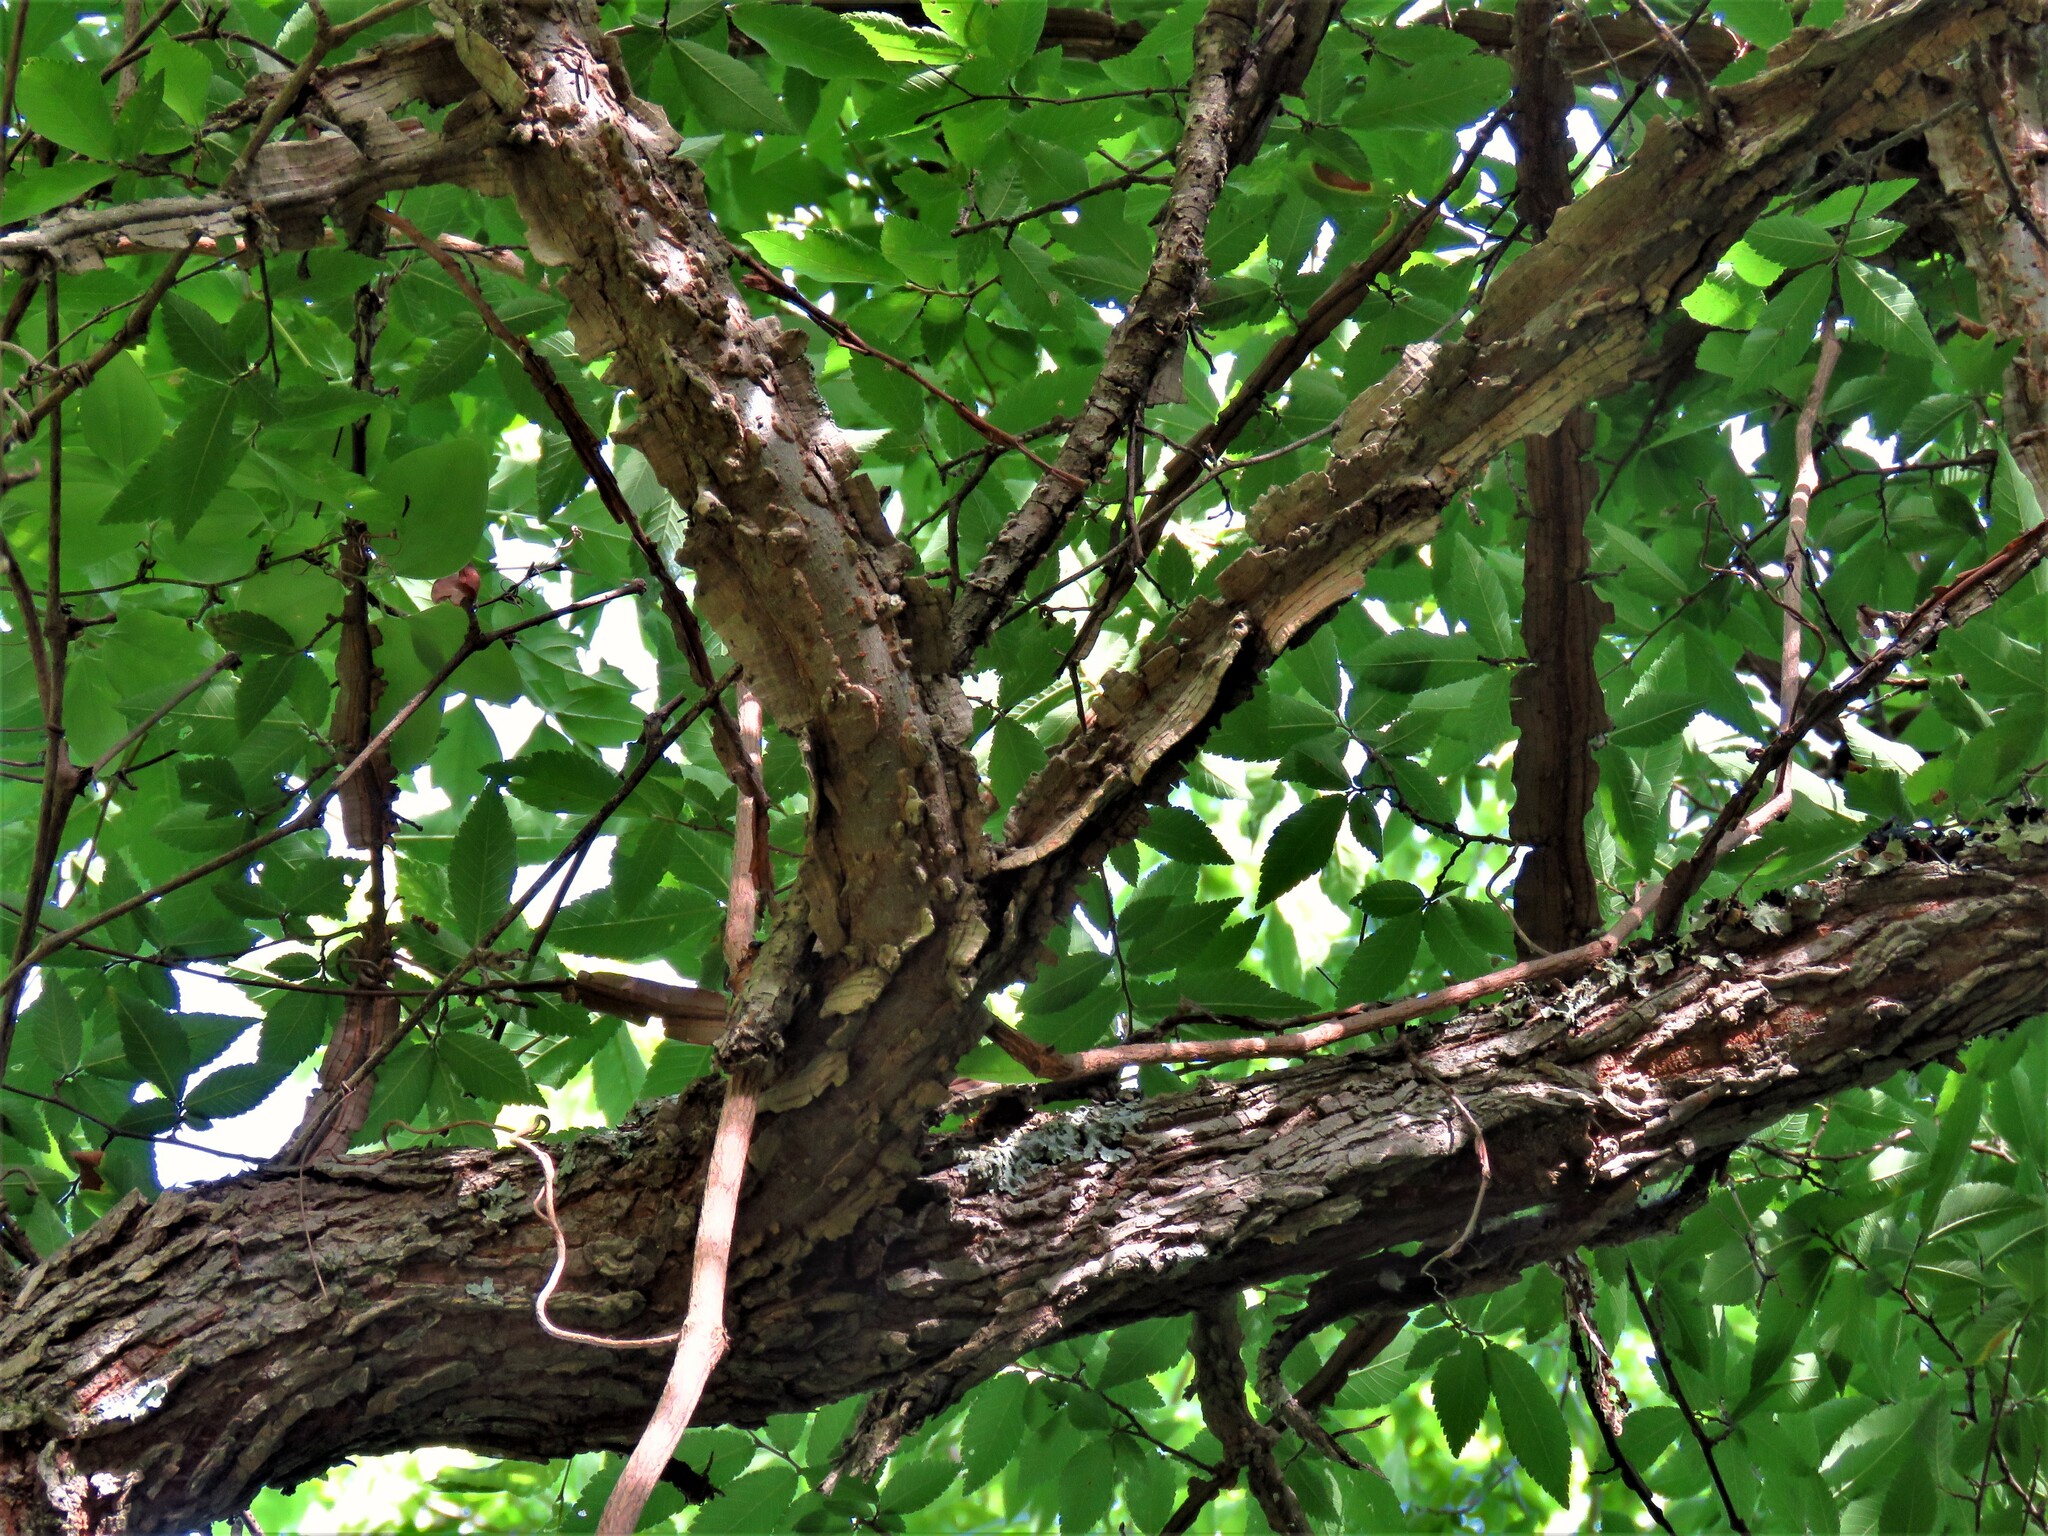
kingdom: Plantae
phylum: Tracheophyta
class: Magnoliopsida
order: Rosales
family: Ulmaceae
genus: Ulmus
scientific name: Ulmus alata
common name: Winged elm
